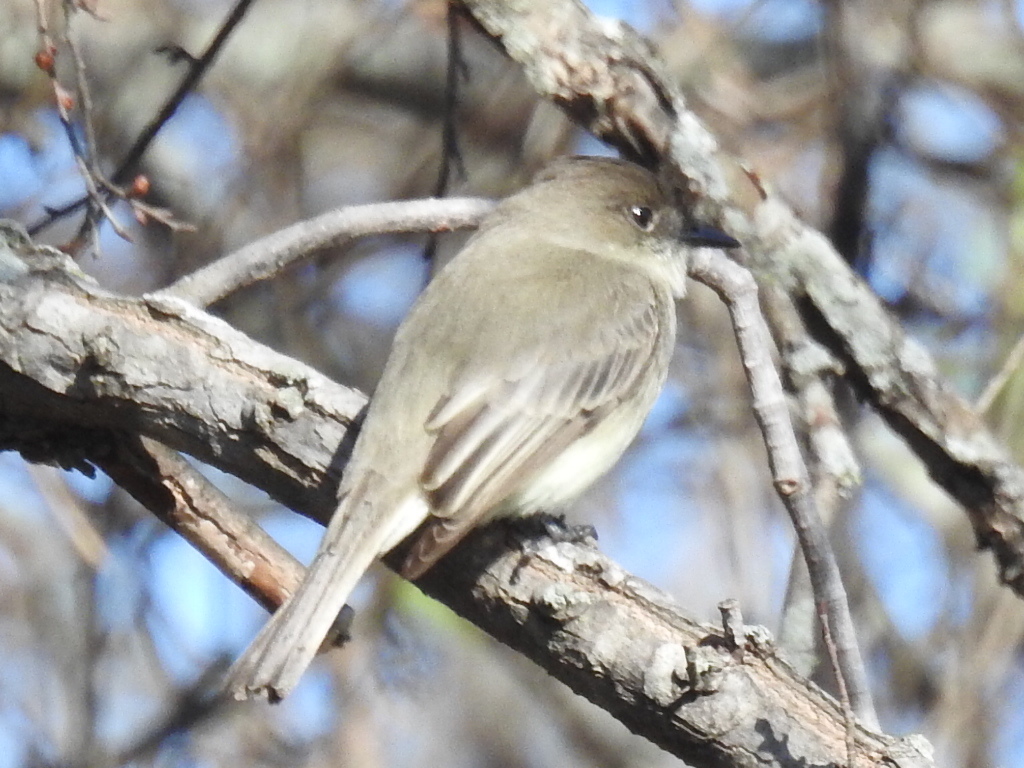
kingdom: Animalia
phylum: Chordata
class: Aves
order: Passeriformes
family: Tyrannidae
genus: Sayornis
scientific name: Sayornis phoebe
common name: Eastern phoebe
